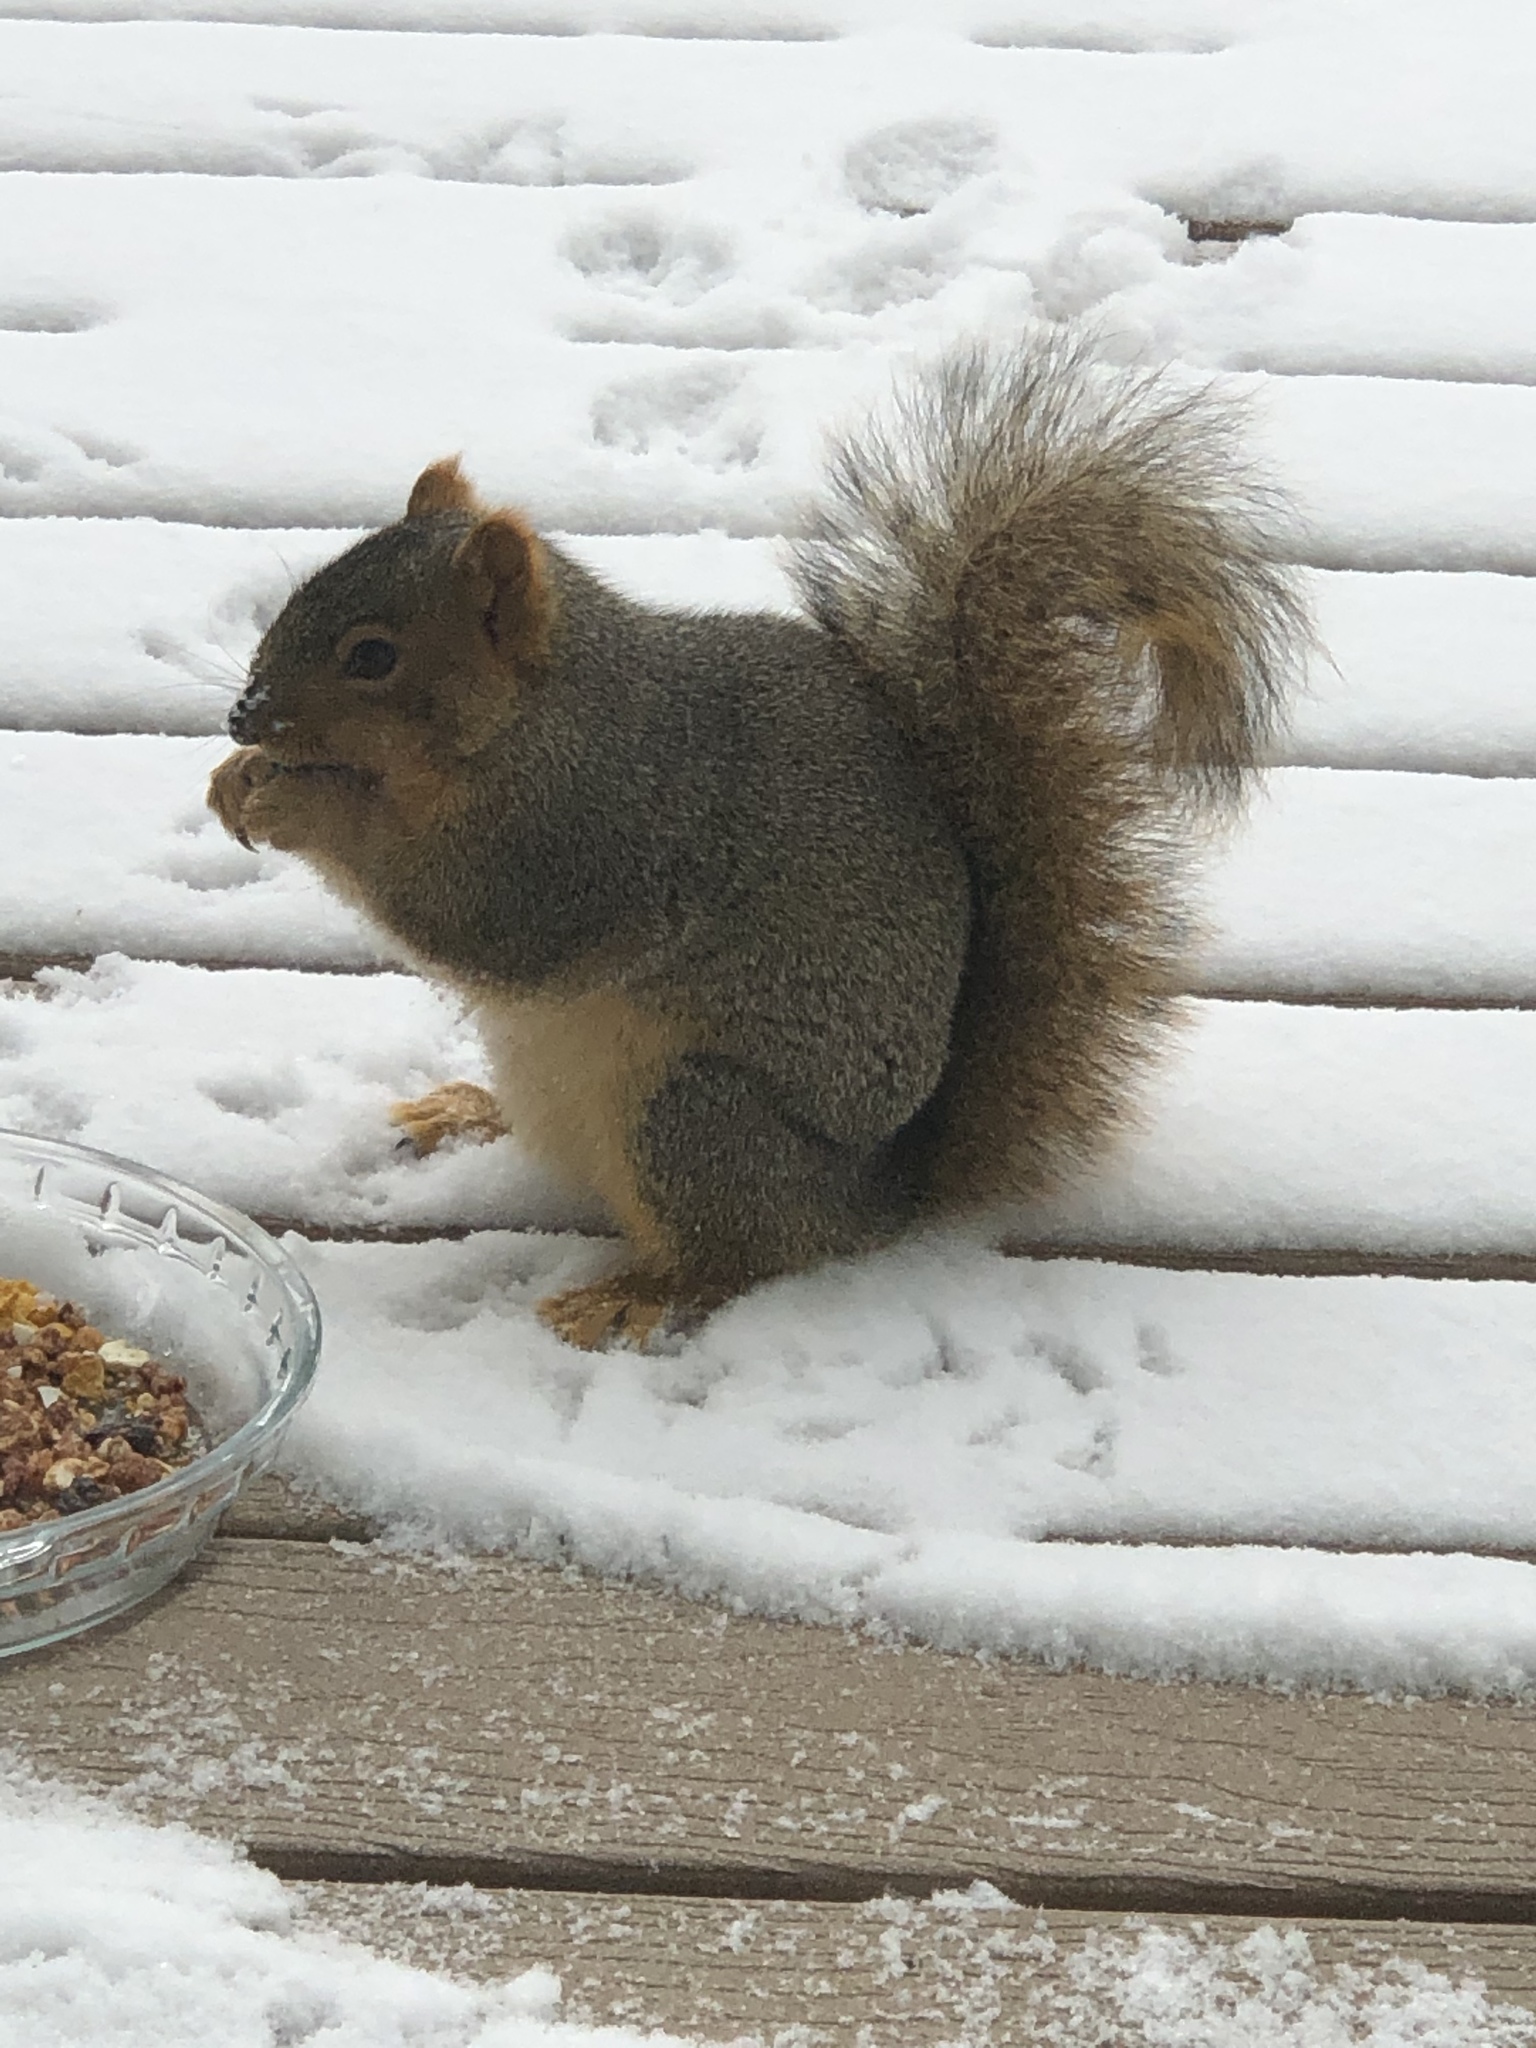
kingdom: Animalia
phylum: Chordata
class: Mammalia
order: Rodentia
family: Sciuridae
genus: Sciurus
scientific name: Sciurus niger
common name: Fox squirrel
